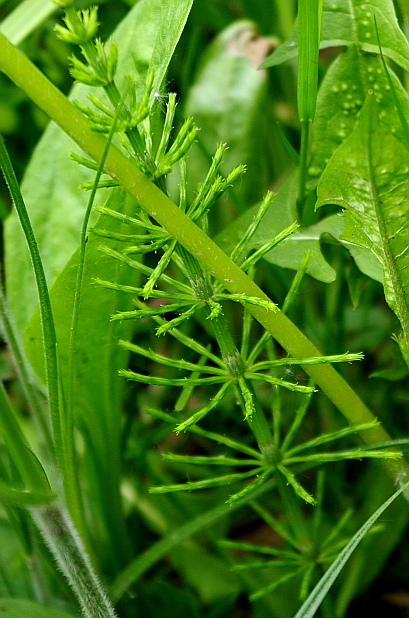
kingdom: Plantae
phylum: Tracheophyta
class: Polypodiopsida
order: Equisetales
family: Equisetaceae
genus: Equisetum
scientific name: Equisetum arvense
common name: Field horsetail
